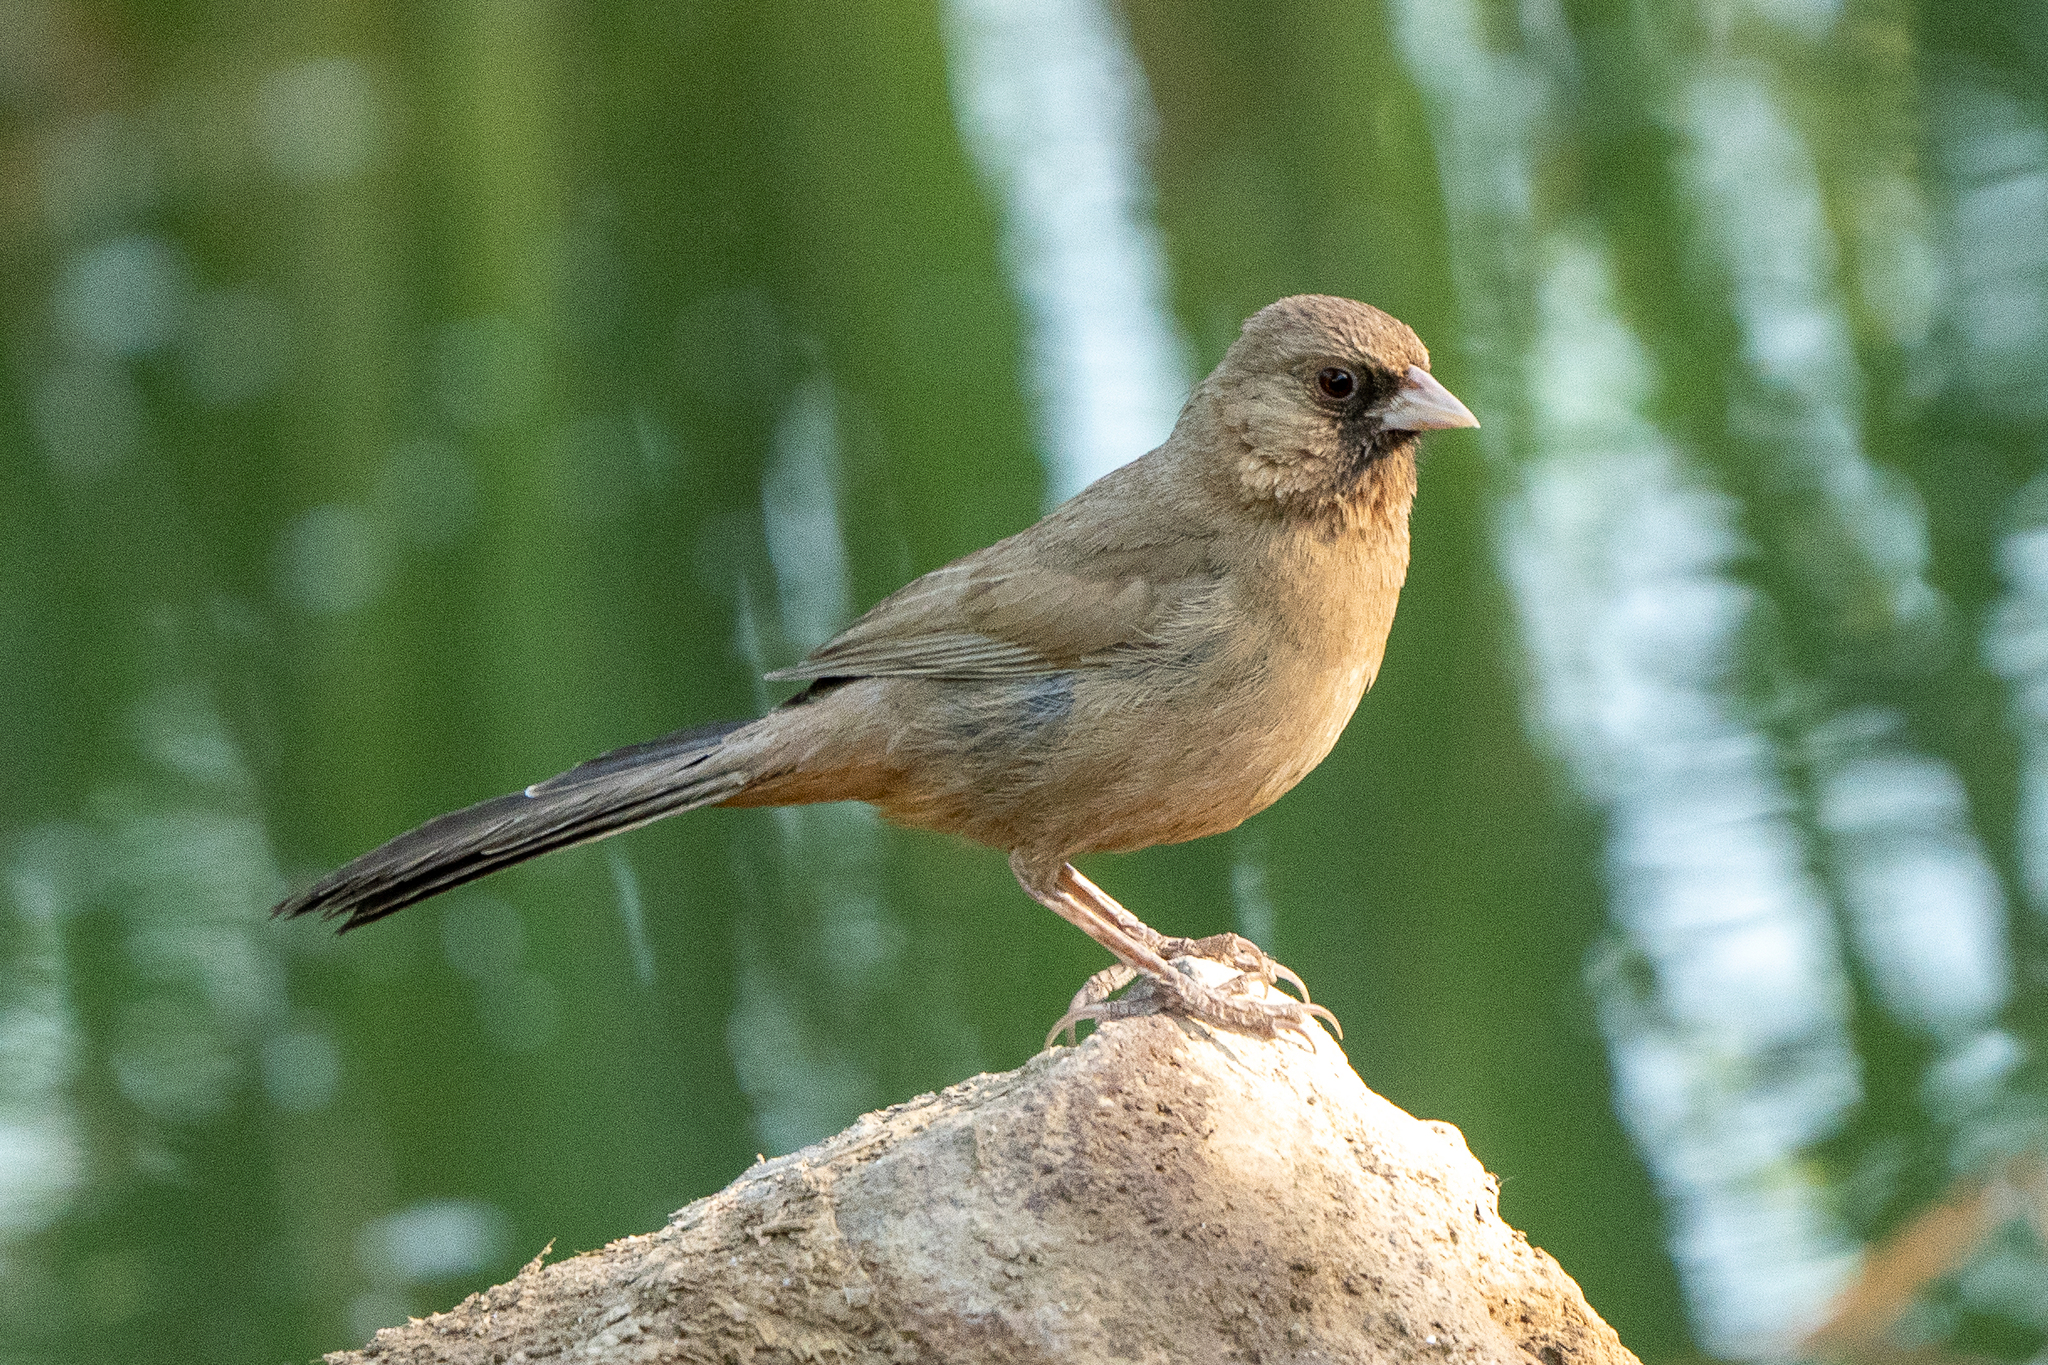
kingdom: Animalia
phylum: Chordata
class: Aves
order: Passeriformes
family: Passerellidae
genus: Melozone
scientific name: Melozone aberti
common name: Abert's towhee
